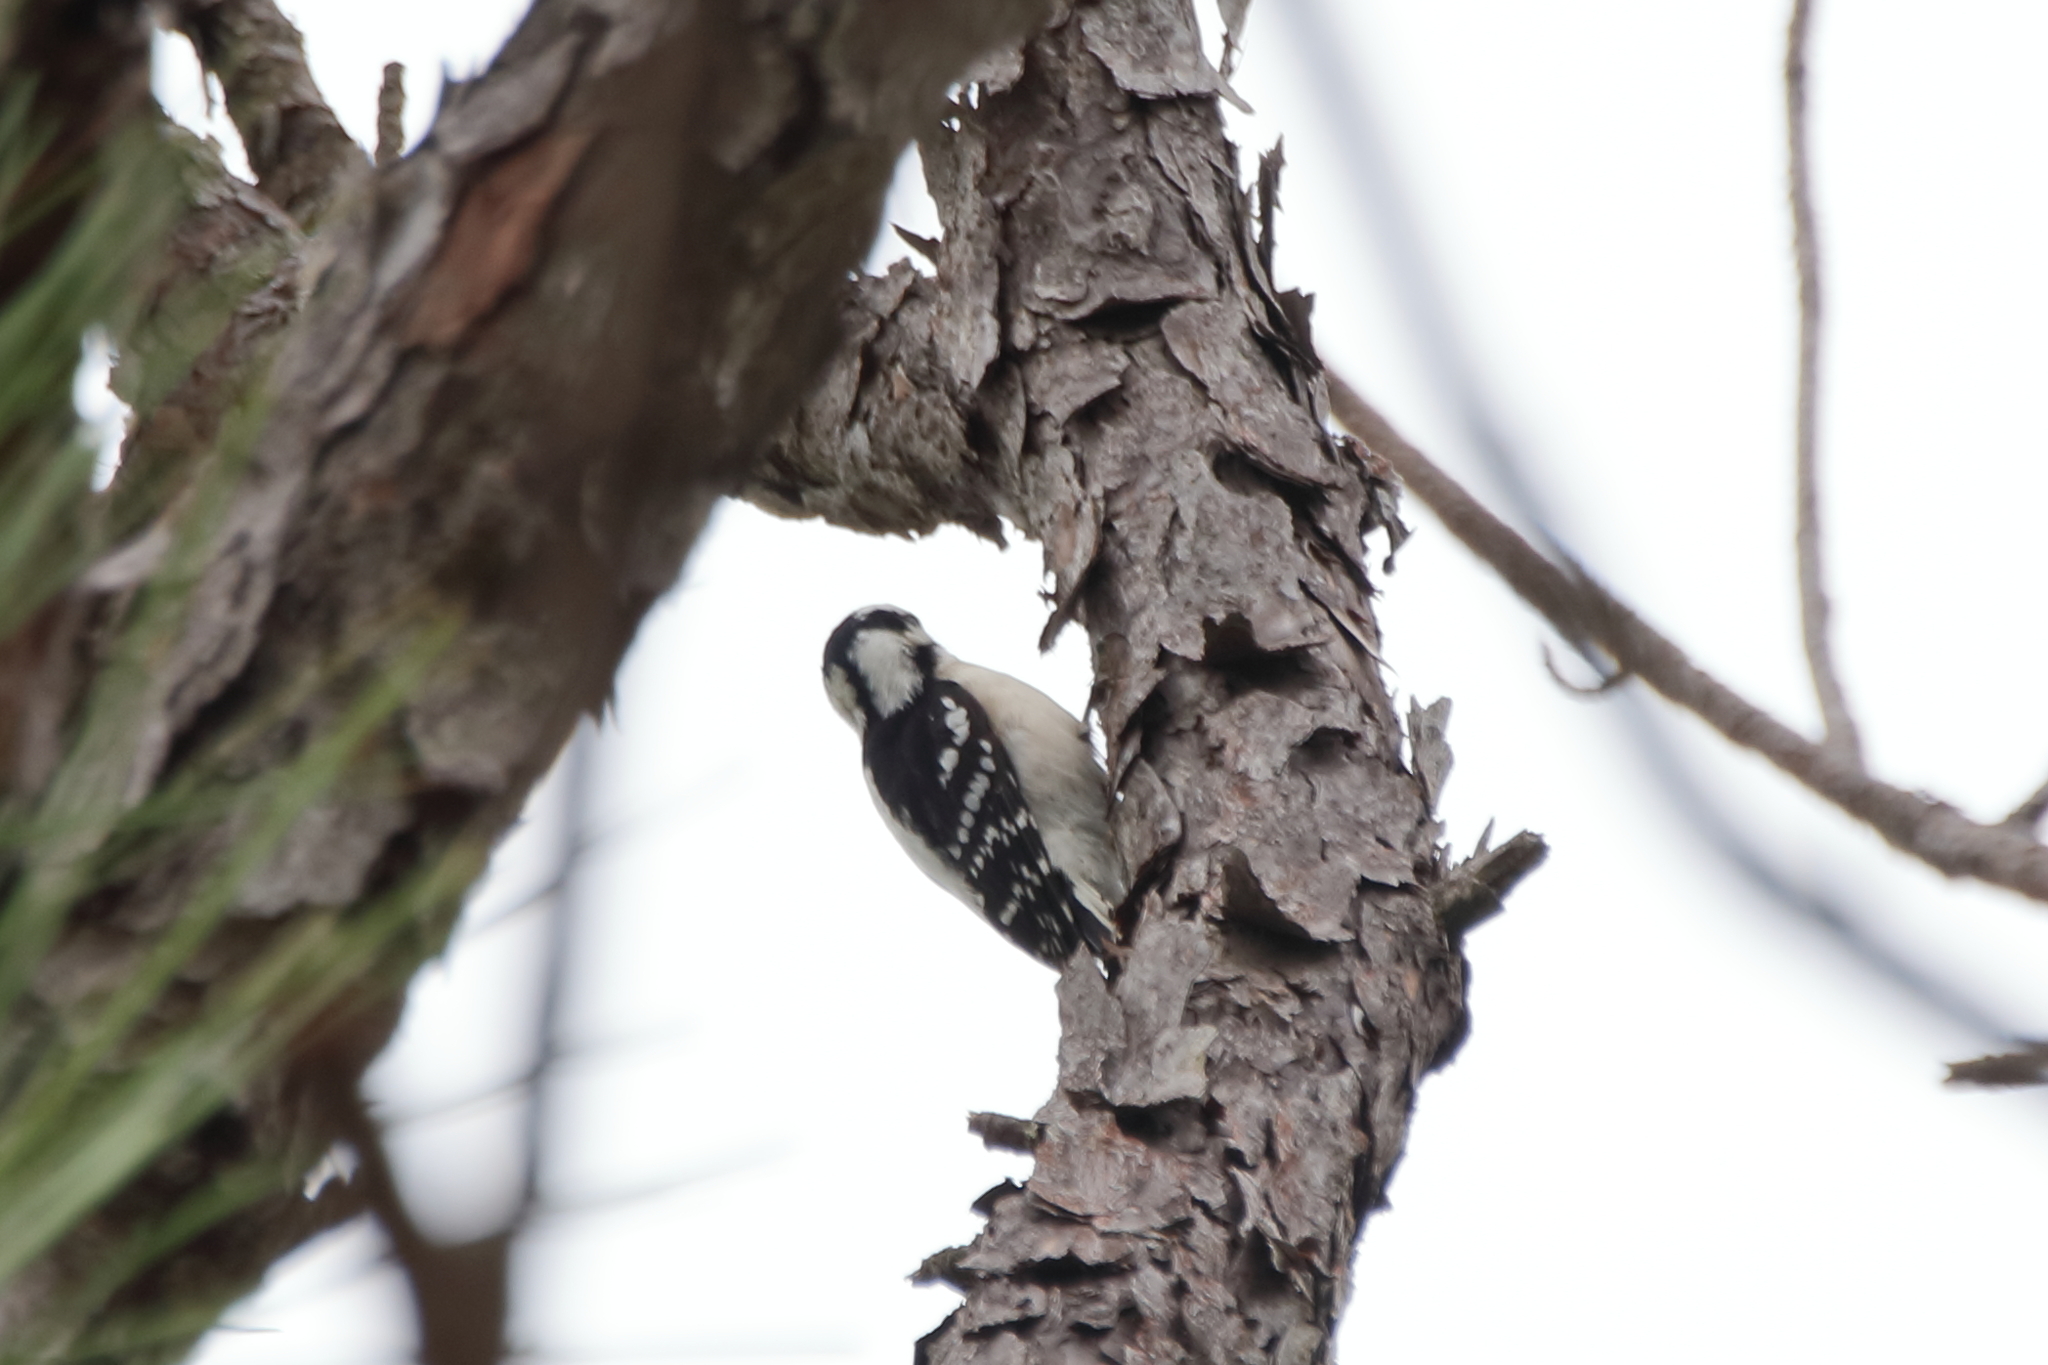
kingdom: Animalia
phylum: Chordata
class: Aves
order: Piciformes
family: Picidae
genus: Dryobates
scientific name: Dryobates pubescens
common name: Downy woodpecker
